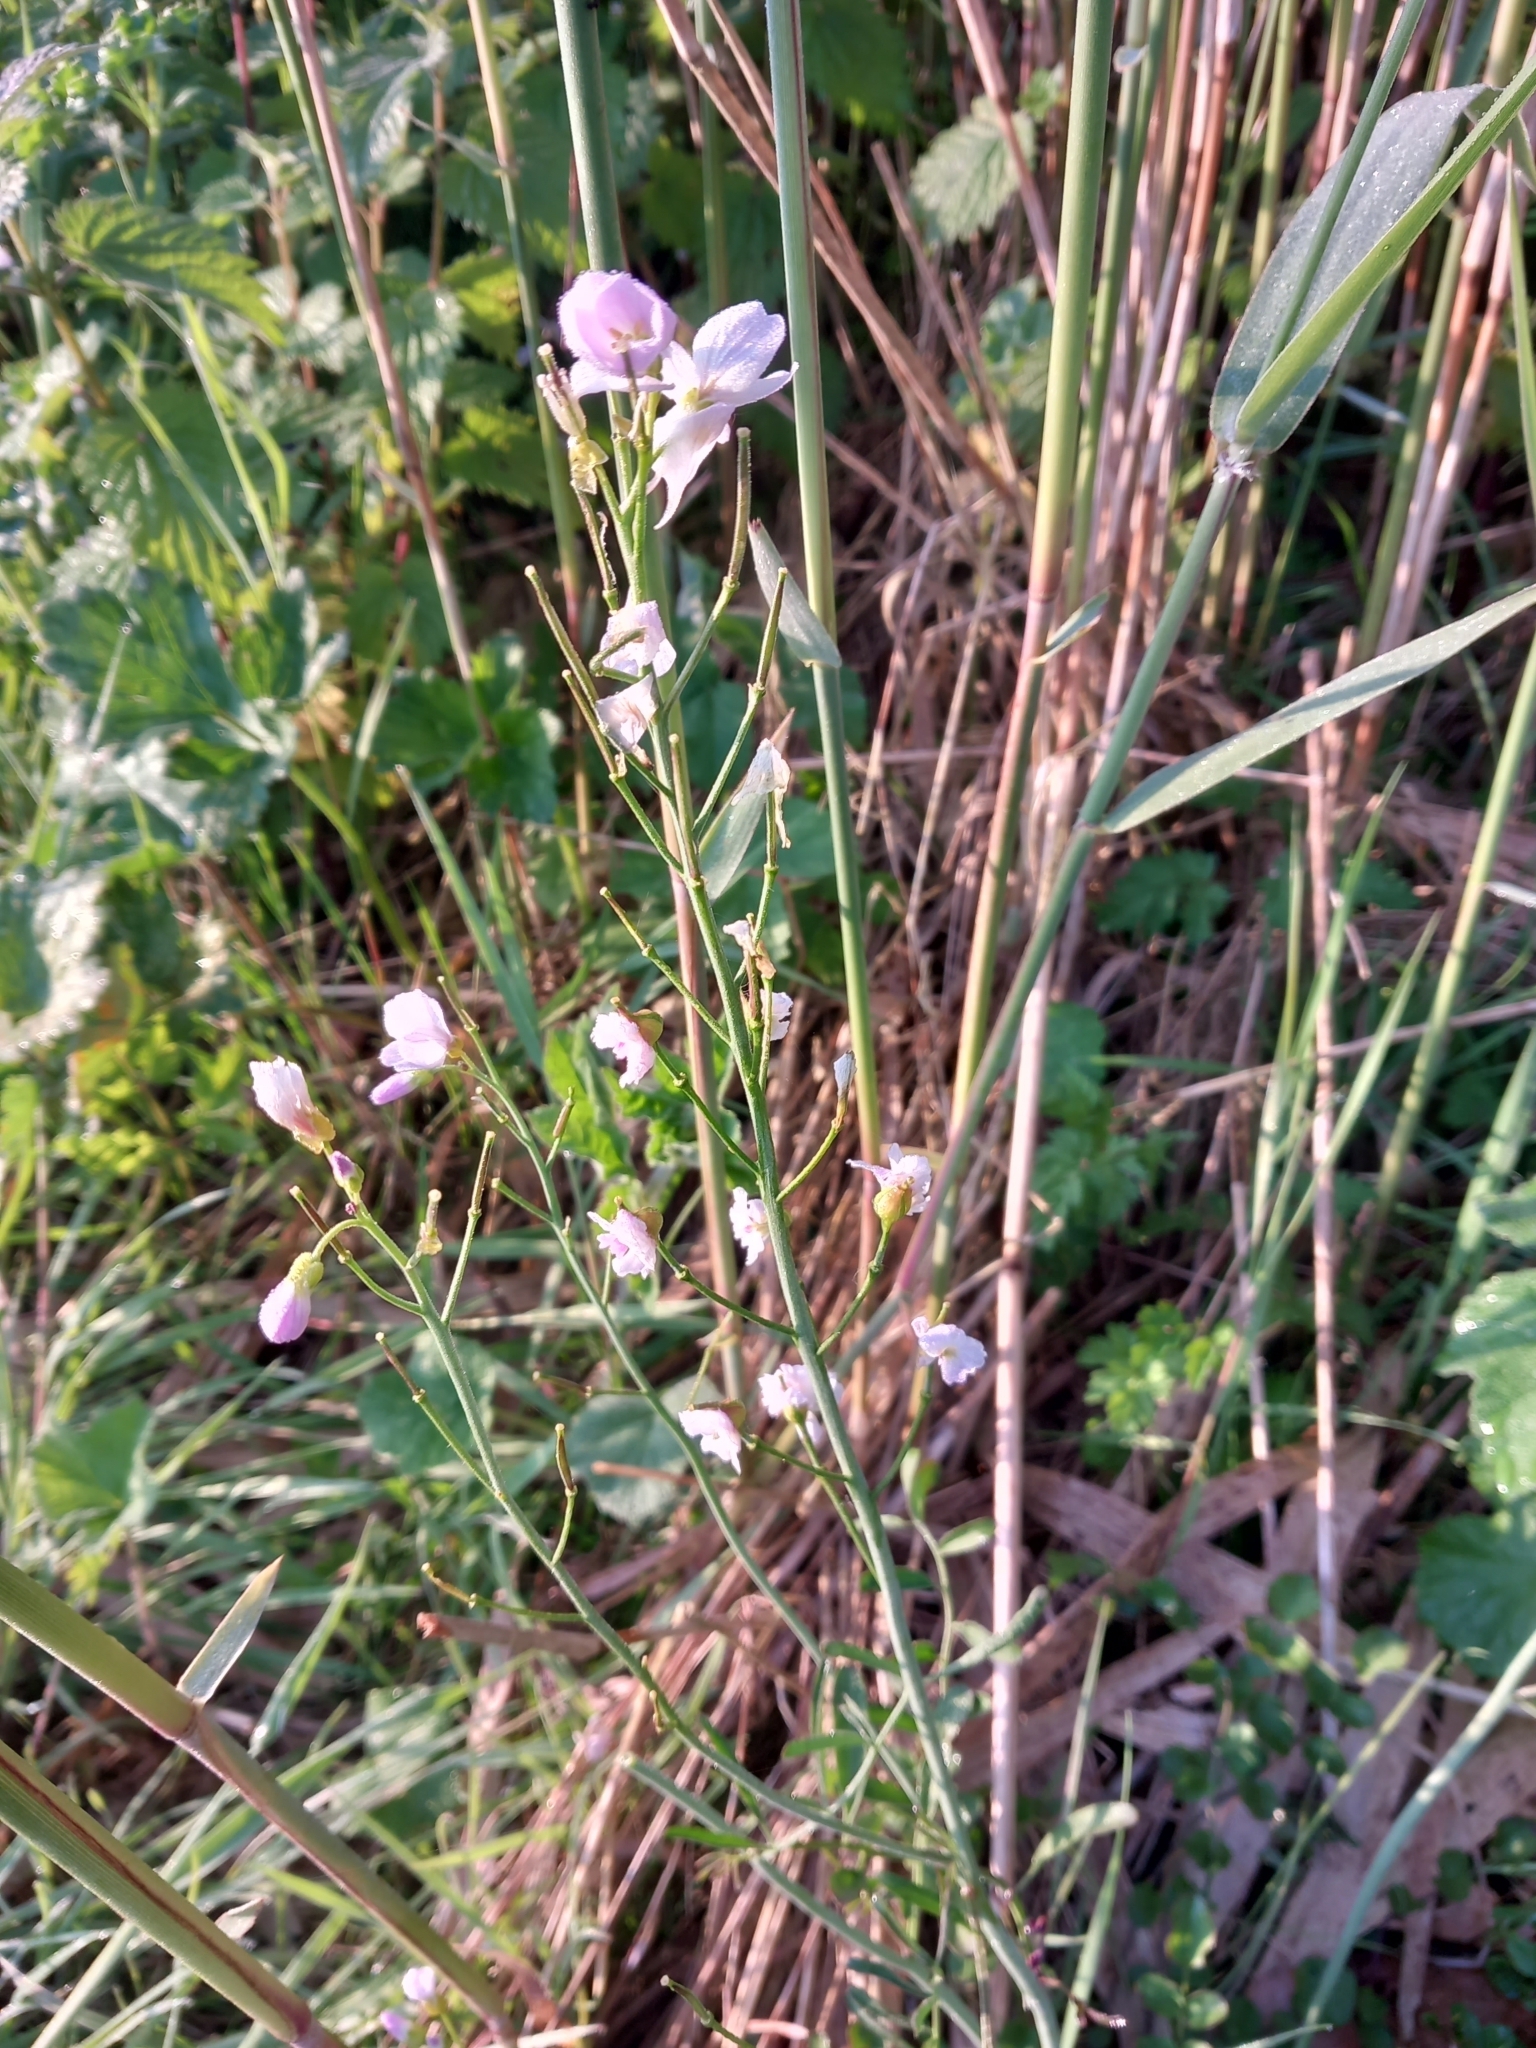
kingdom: Plantae
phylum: Tracheophyta
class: Magnoliopsida
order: Brassicales
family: Brassicaceae
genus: Cardamine
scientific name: Cardamine pratensis
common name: Cuckoo flower
